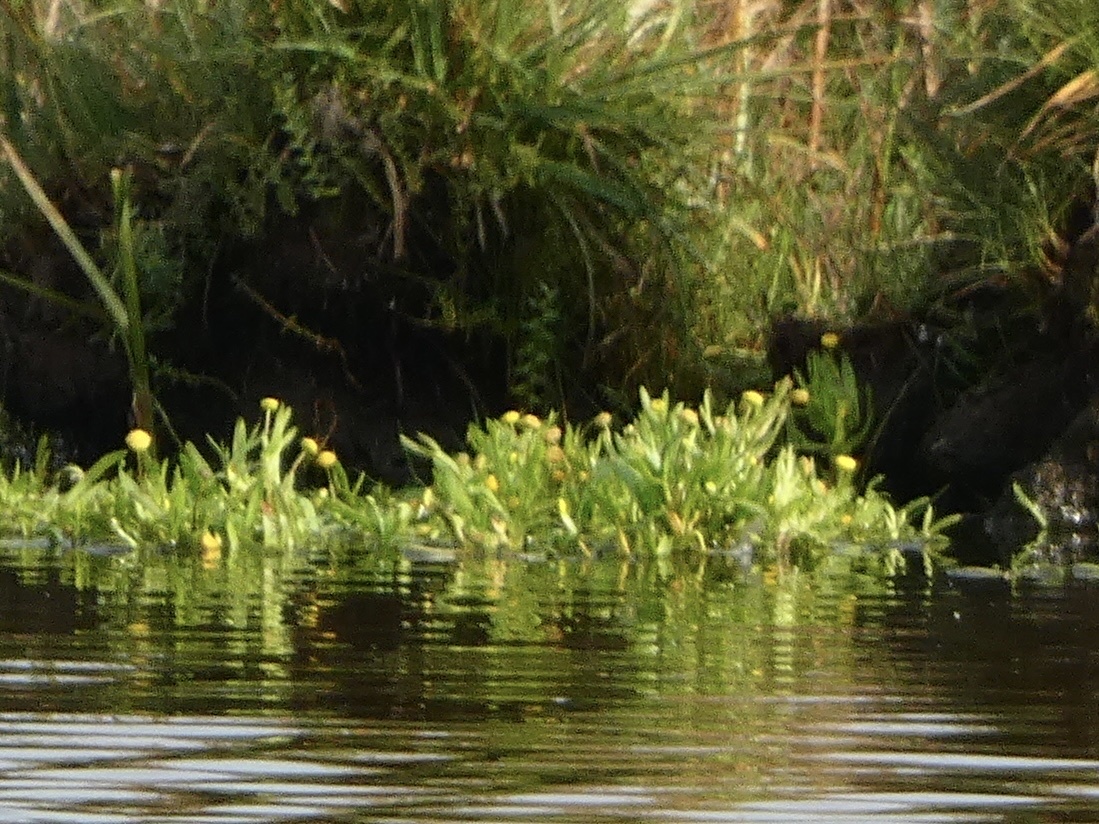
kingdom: Plantae
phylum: Tracheophyta
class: Magnoliopsida
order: Asterales
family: Asteraceae
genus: Cotula
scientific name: Cotula coronopifolia
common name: Buttonweed
